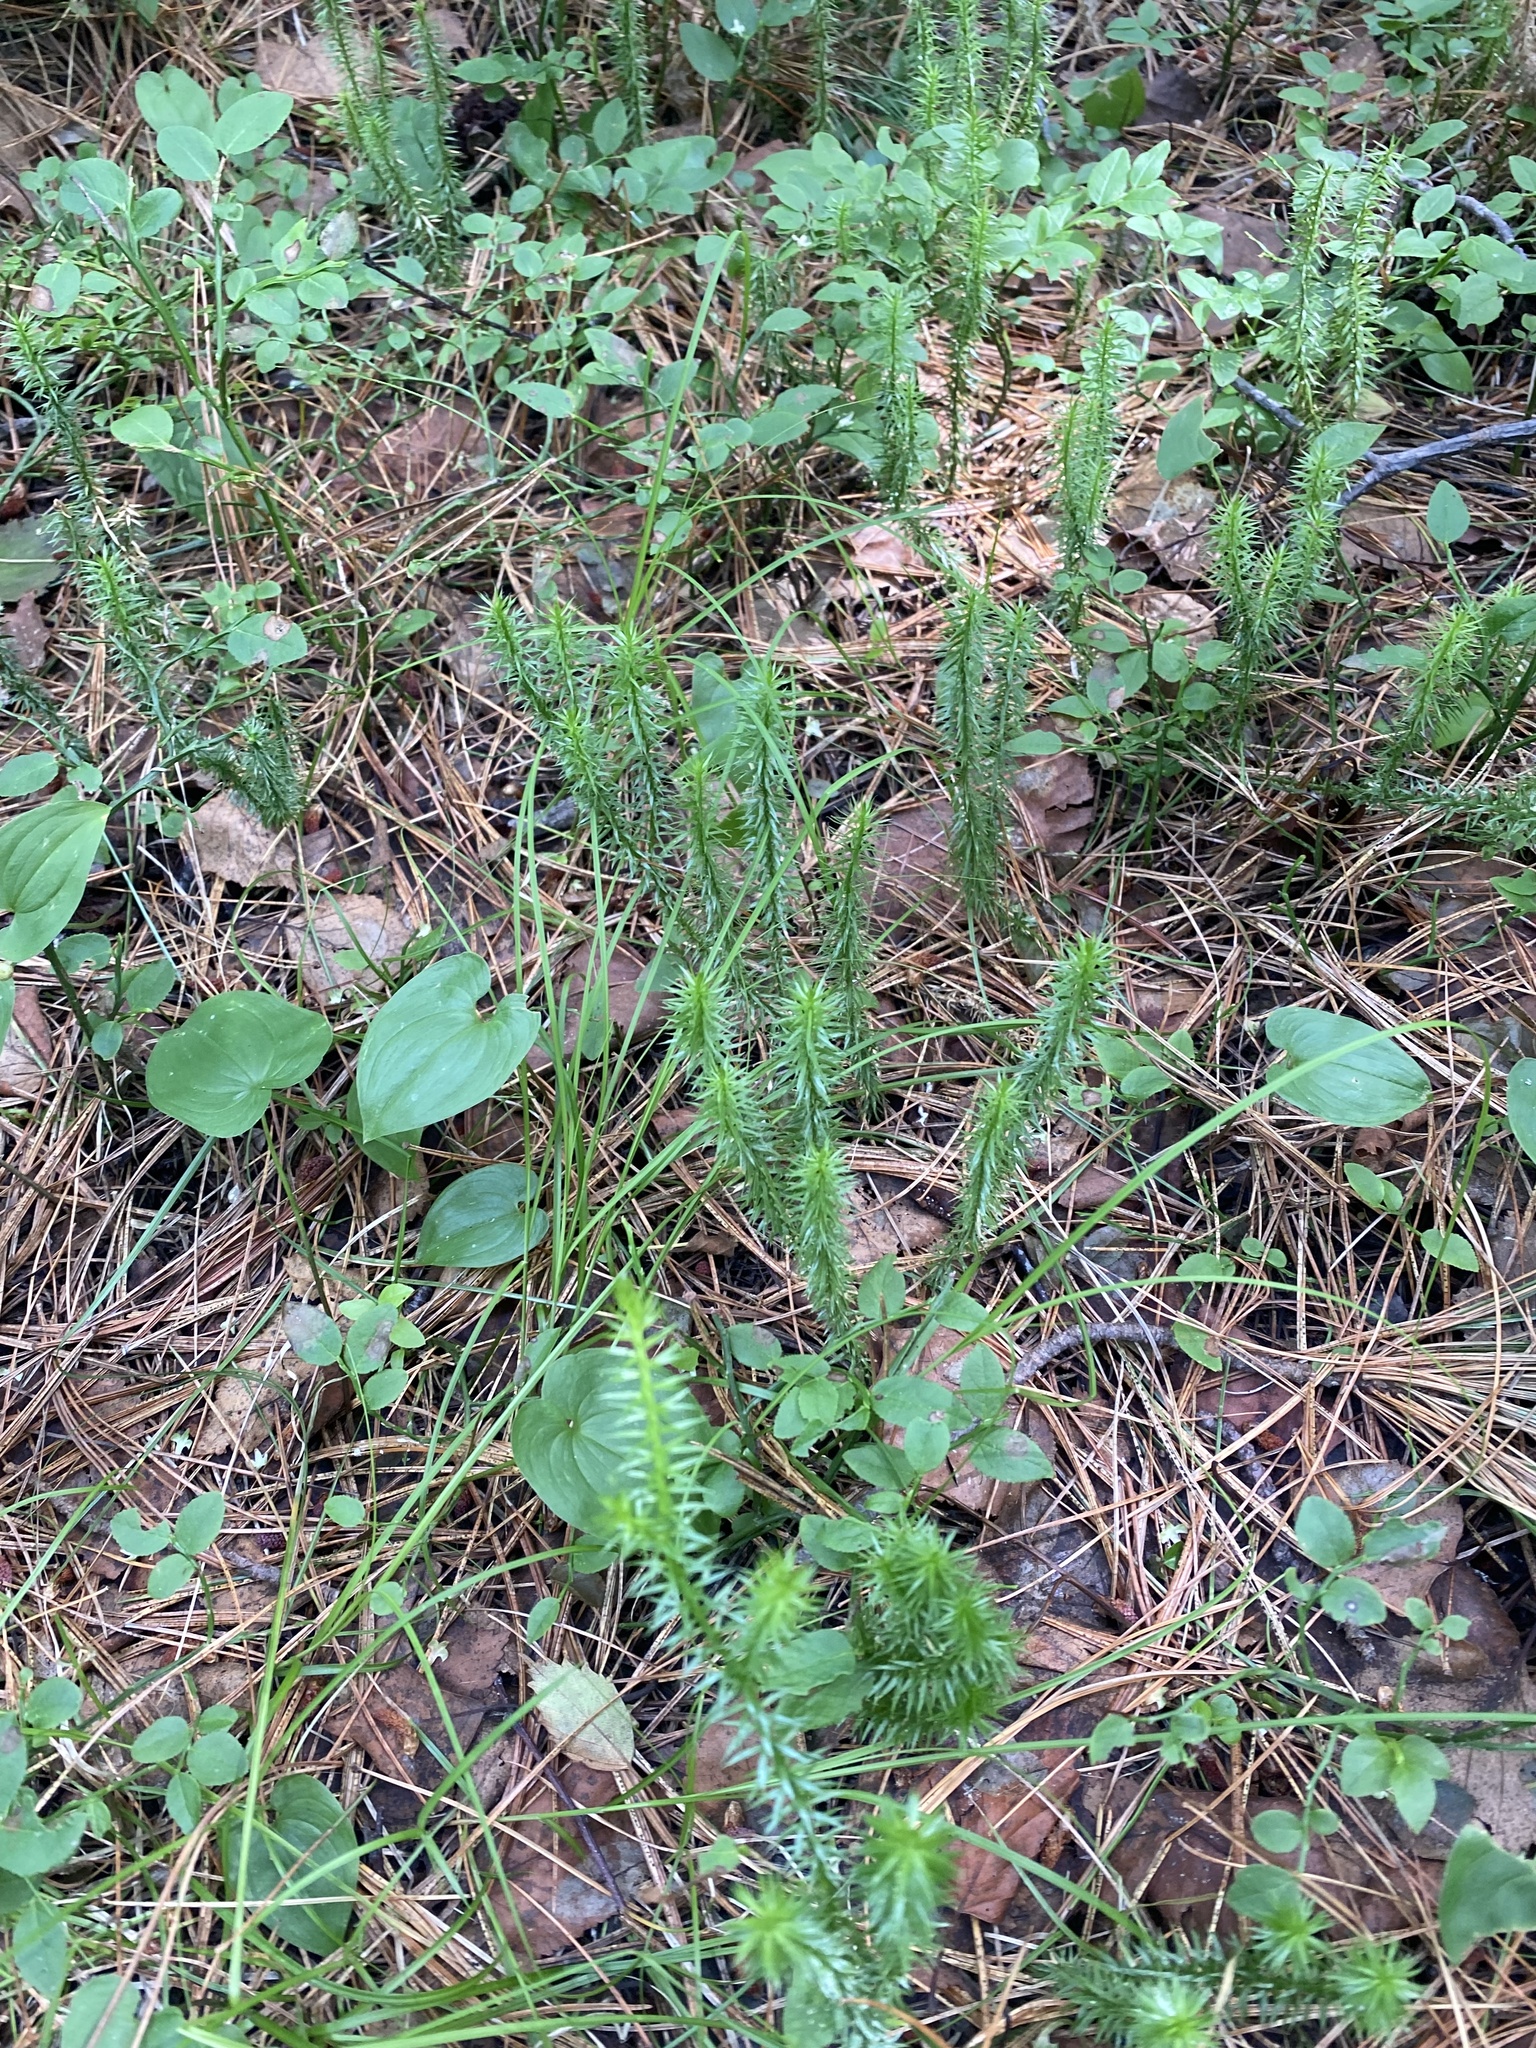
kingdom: Plantae
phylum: Tracheophyta
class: Lycopodiopsida
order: Lycopodiales
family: Lycopodiaceae
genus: Spinulum
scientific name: Spinulum annotinum
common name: Interrupted club-moss
